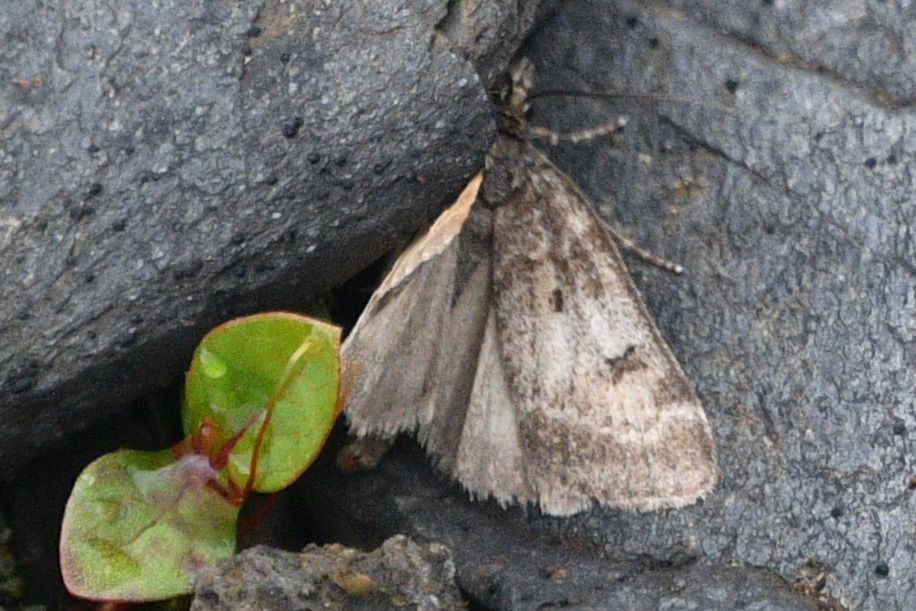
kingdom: Animalia
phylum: Arthropoda
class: Insecta
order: Lepidoptera
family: Crambidae
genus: Gesneria
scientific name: Gesneria centuriella
